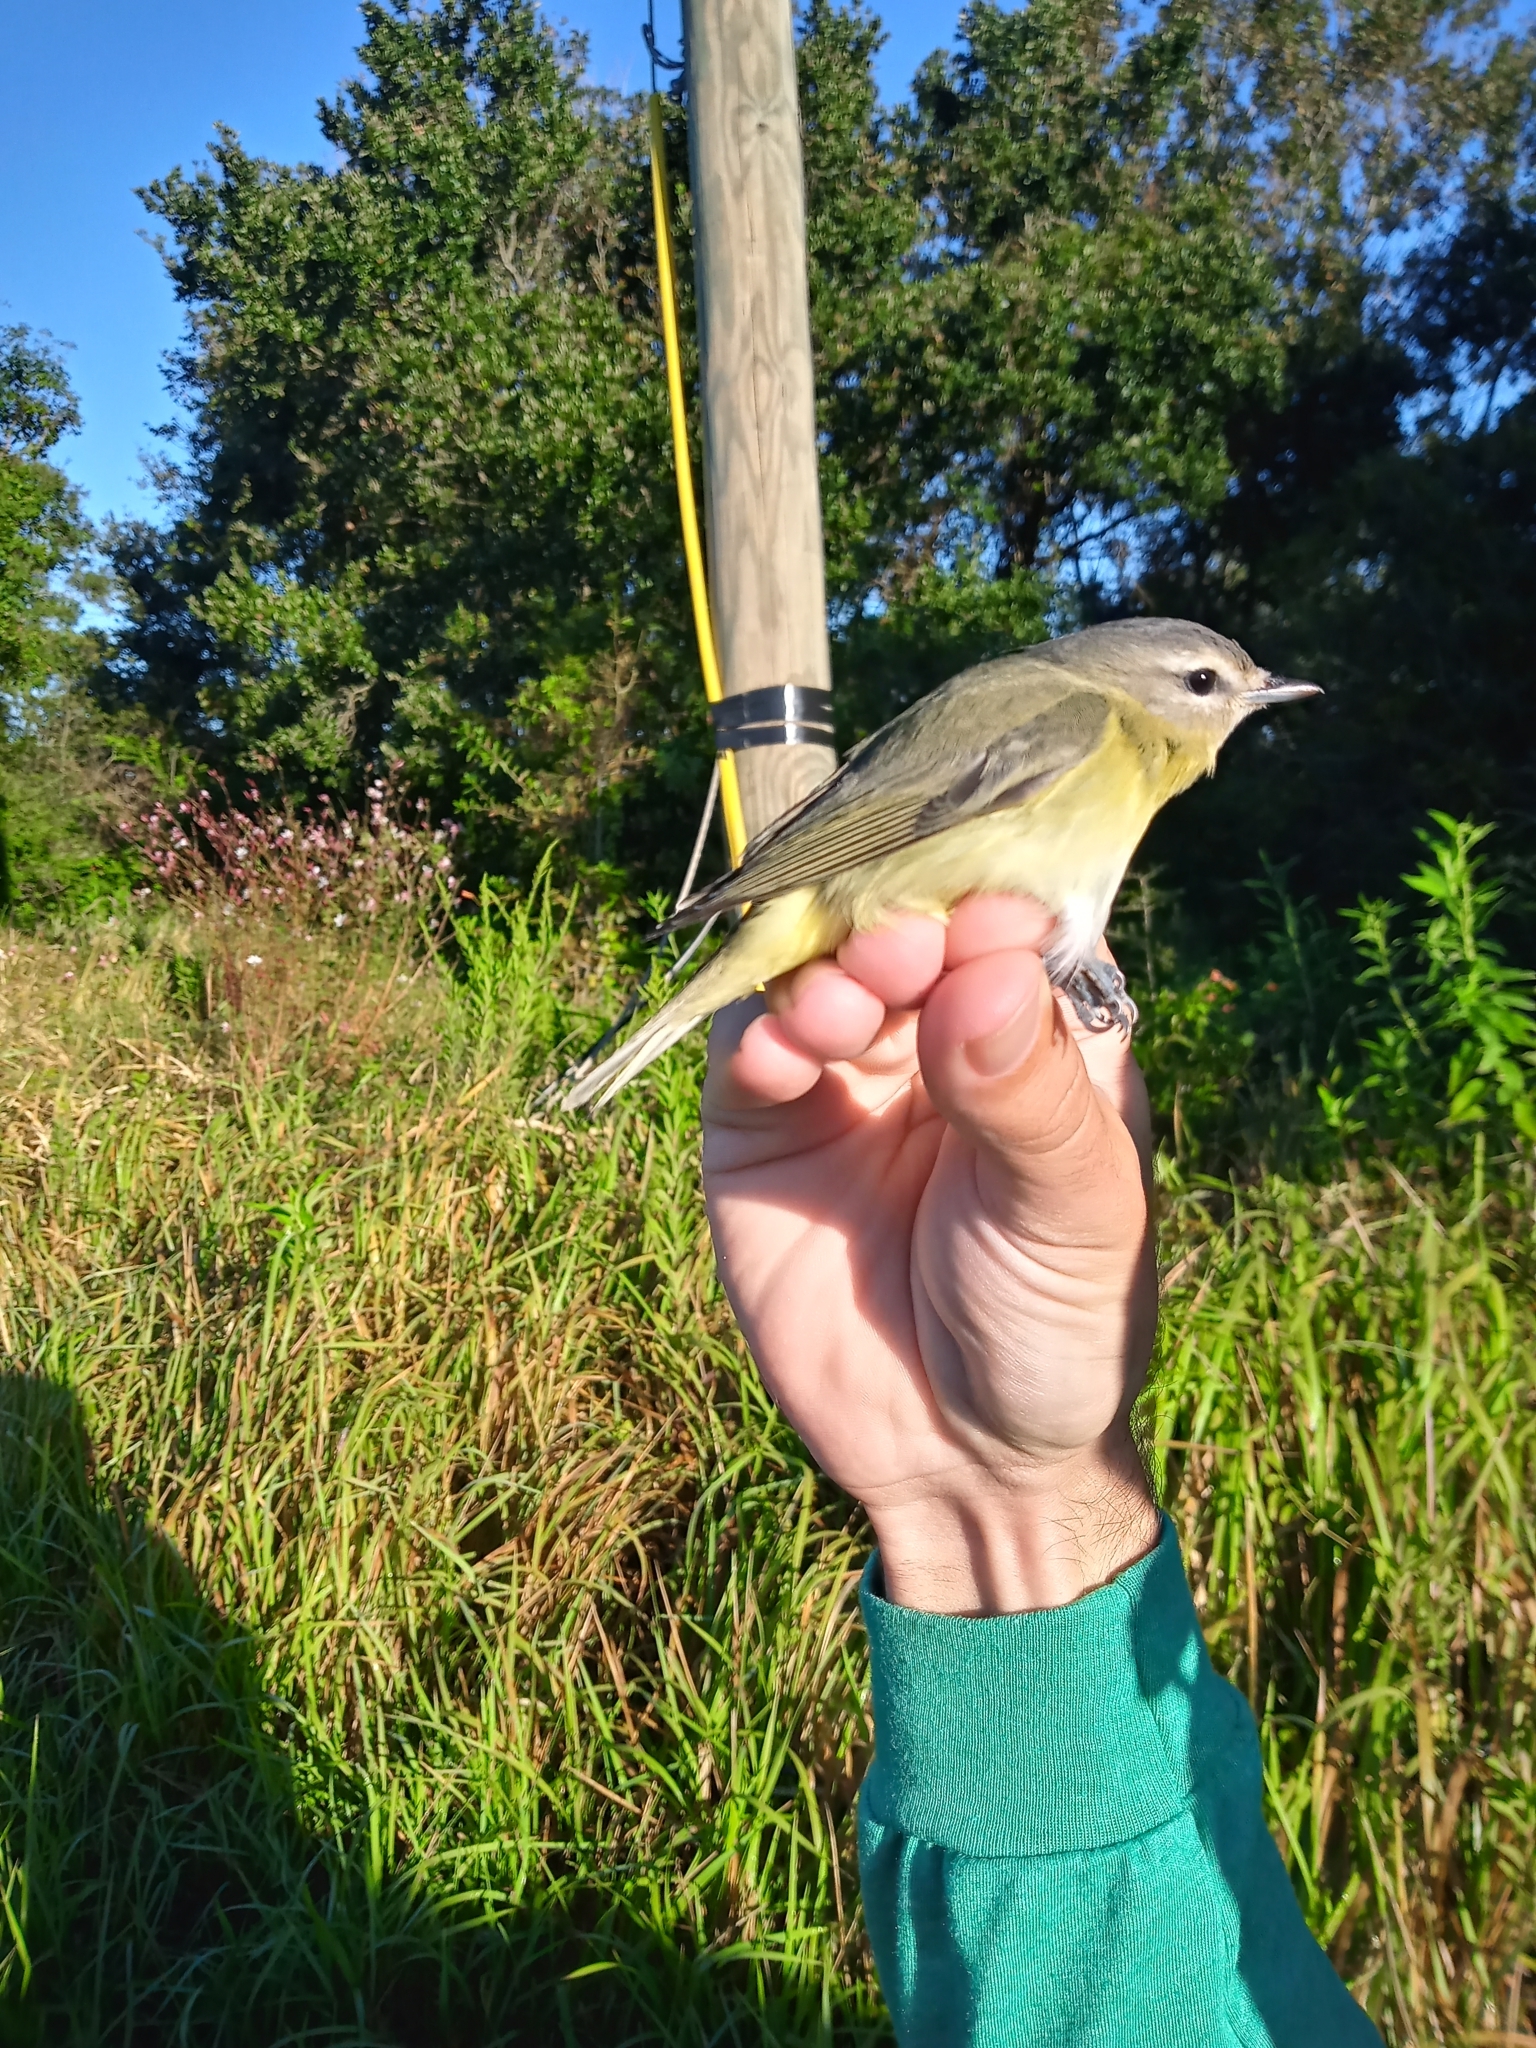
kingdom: Animalia
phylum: Chordata
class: Aves
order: Passeriformes
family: Vireonidae
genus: Vireo
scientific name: Vireo philadelphicus
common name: Philadelphia vireo
